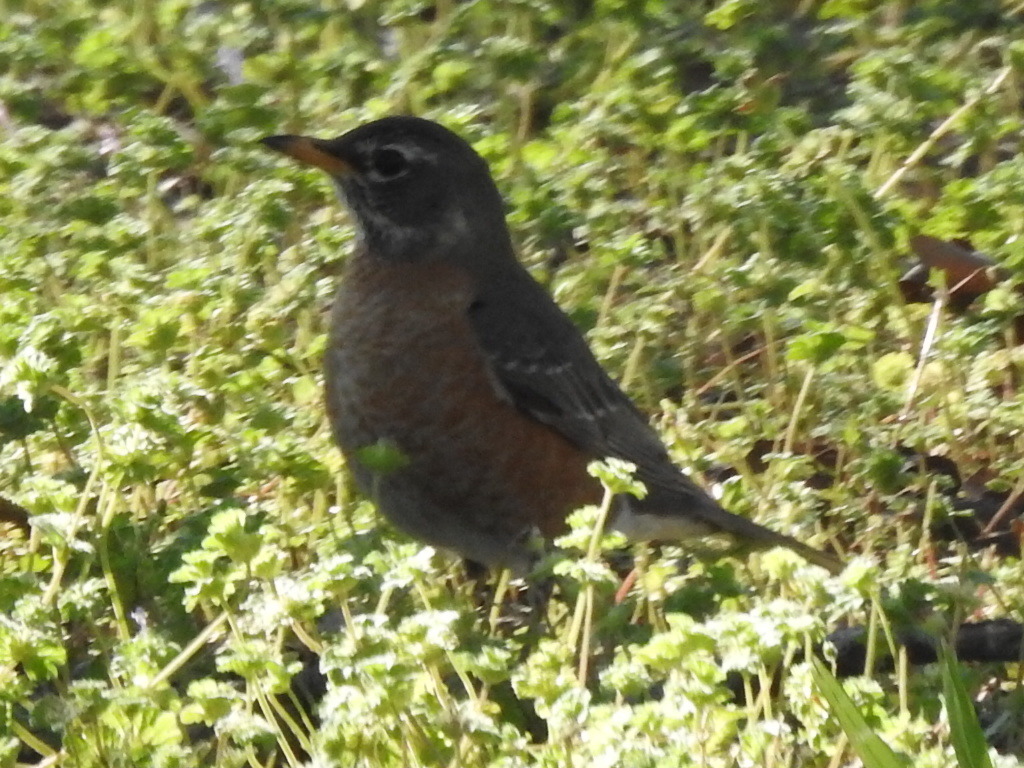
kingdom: Animalia
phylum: Chordata
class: Aves
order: Passeriformes
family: Turdidae
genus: Turdus
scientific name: Turdus migratorius
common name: American robin
